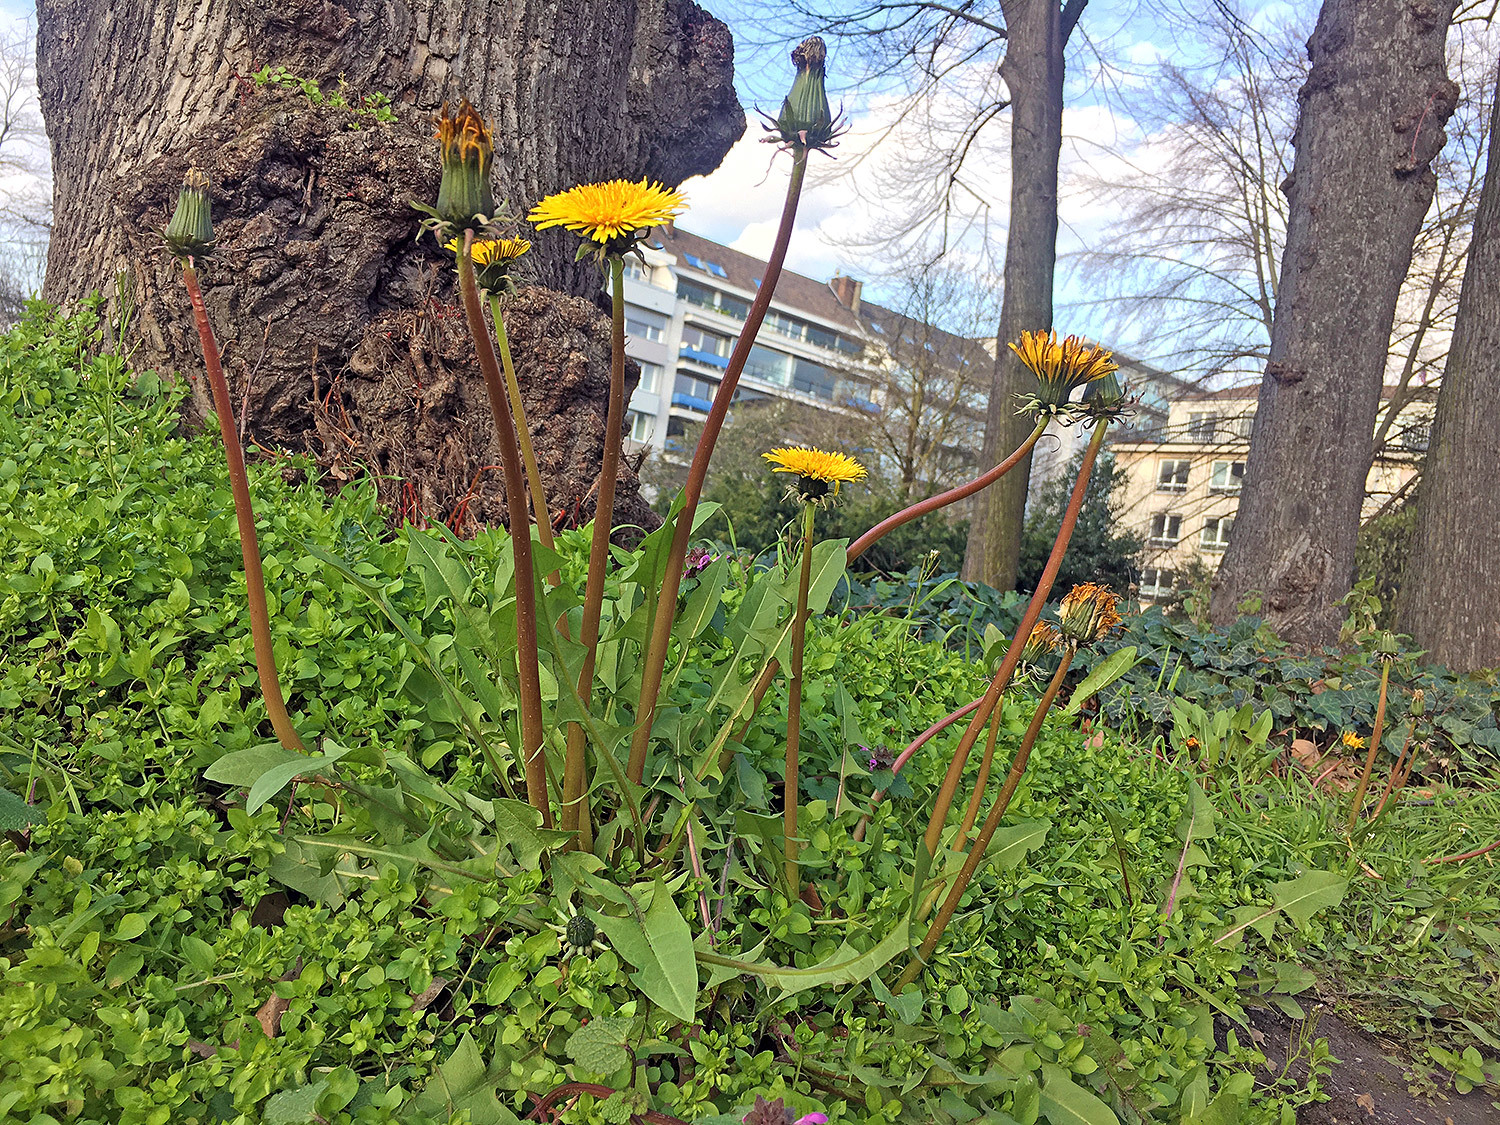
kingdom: Plantae
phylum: Tracheophyta
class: Magnoliopsida
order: Asterales
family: Asteraceae
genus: Taraxacum
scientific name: Taraxacum officinale
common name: Common dandelion
